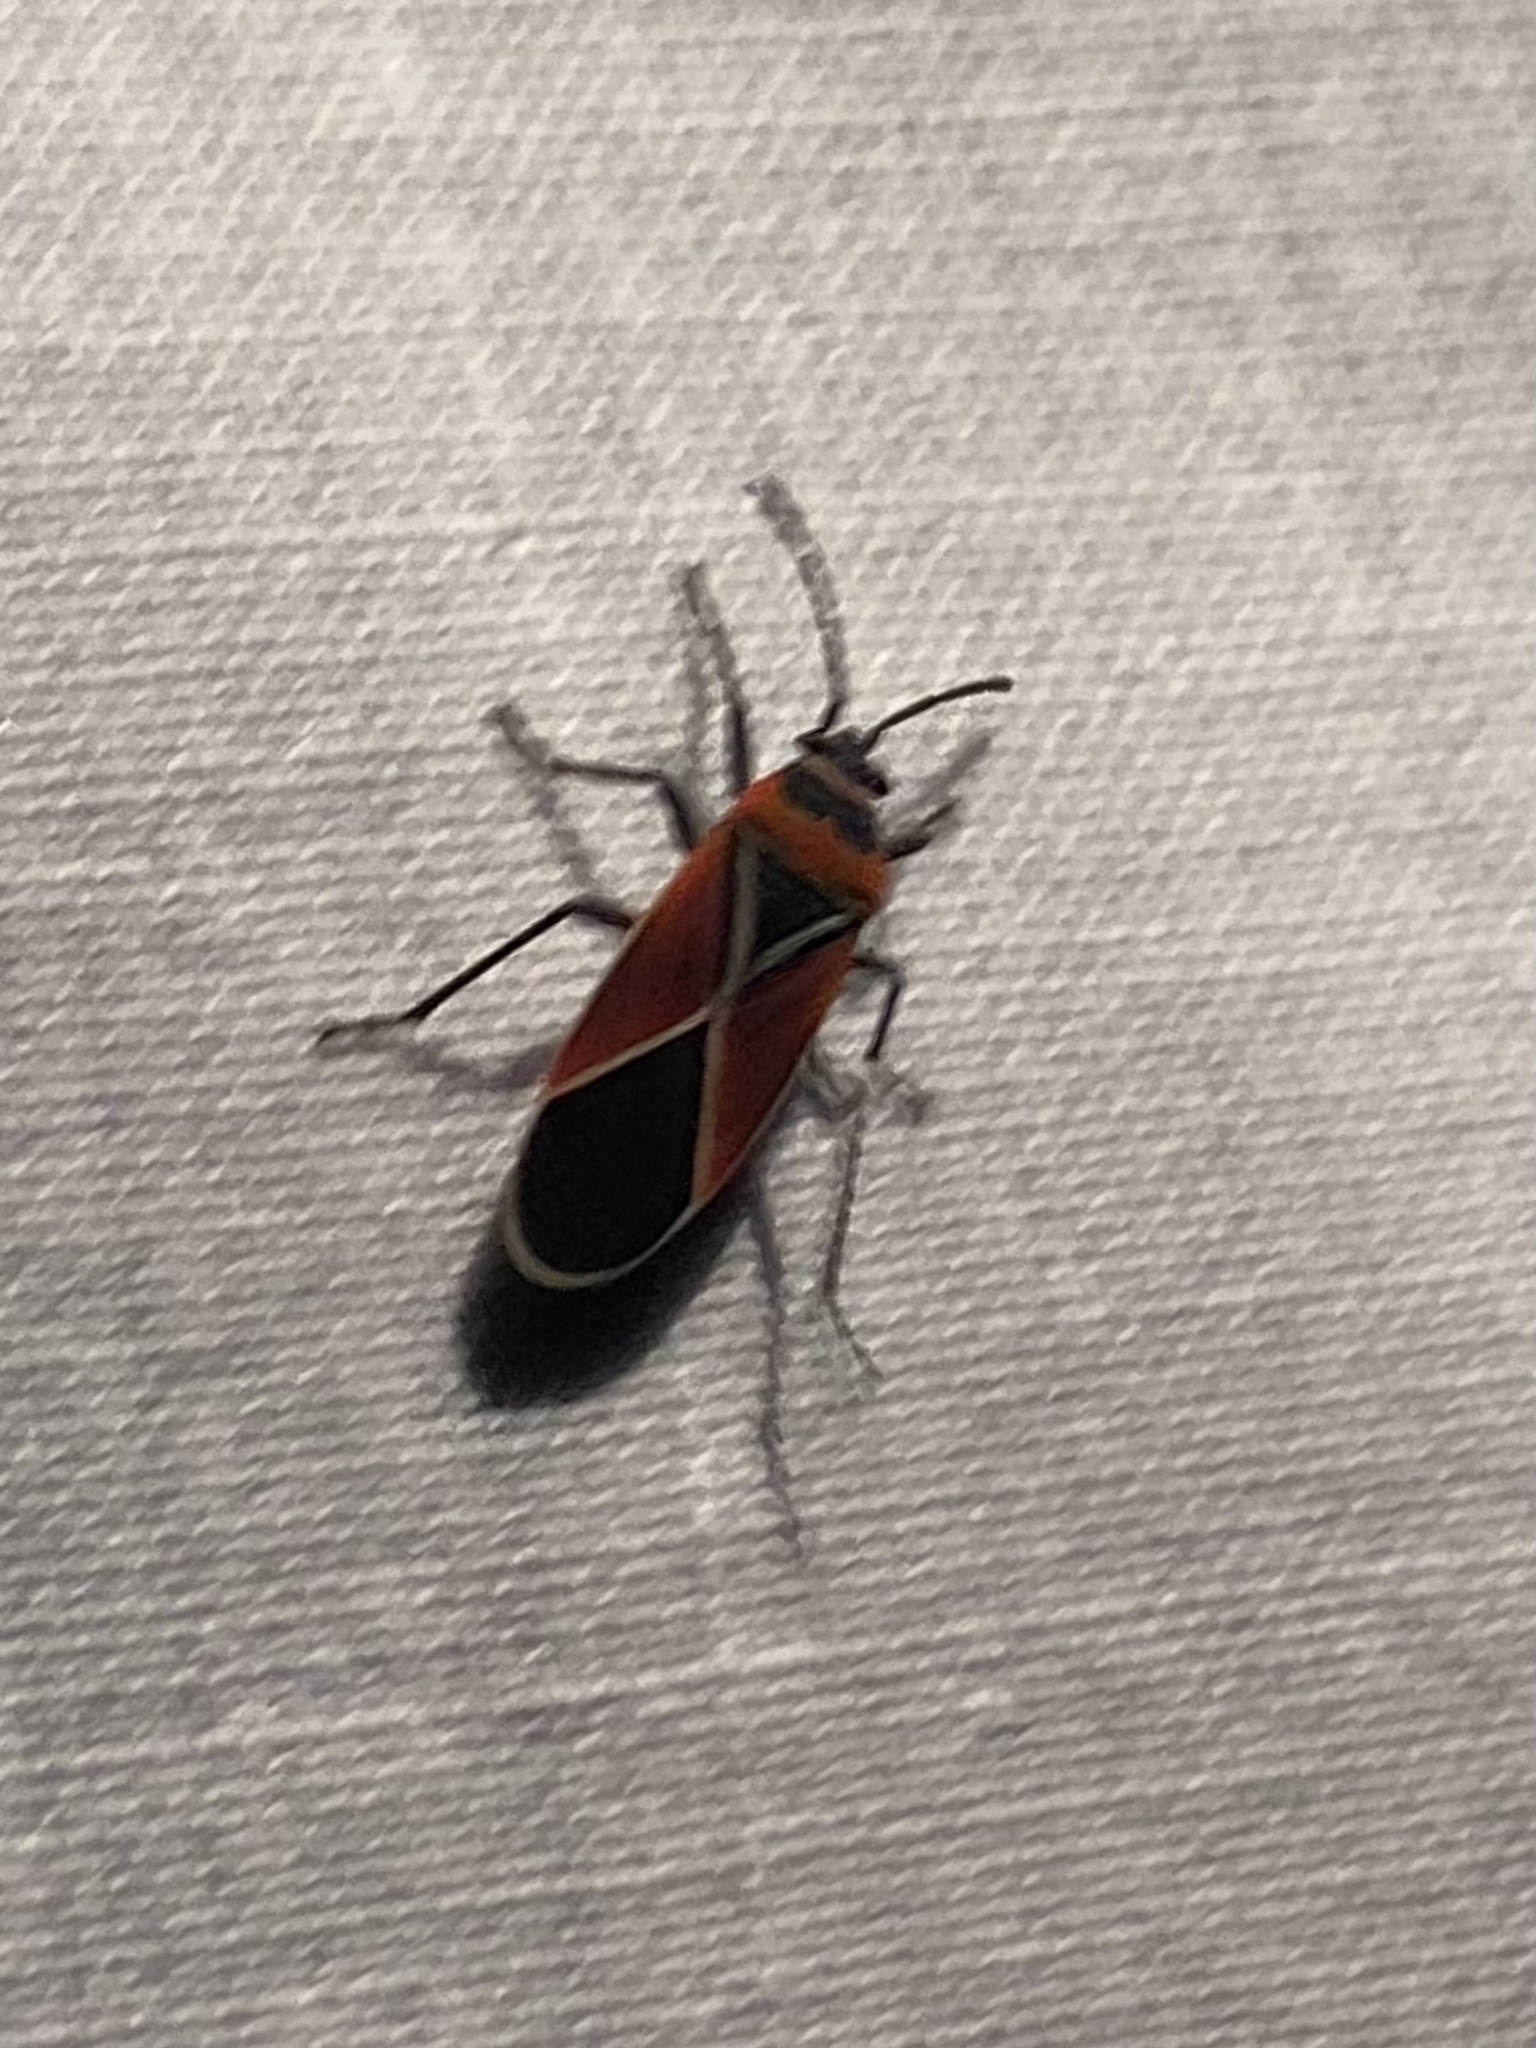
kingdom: Animalia
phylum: Arthropoda
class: Insecta
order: Hemiptera
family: Lygaeidae
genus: Neacoryphus
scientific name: Neacoryphus bicrucis
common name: Lygaeid bug
